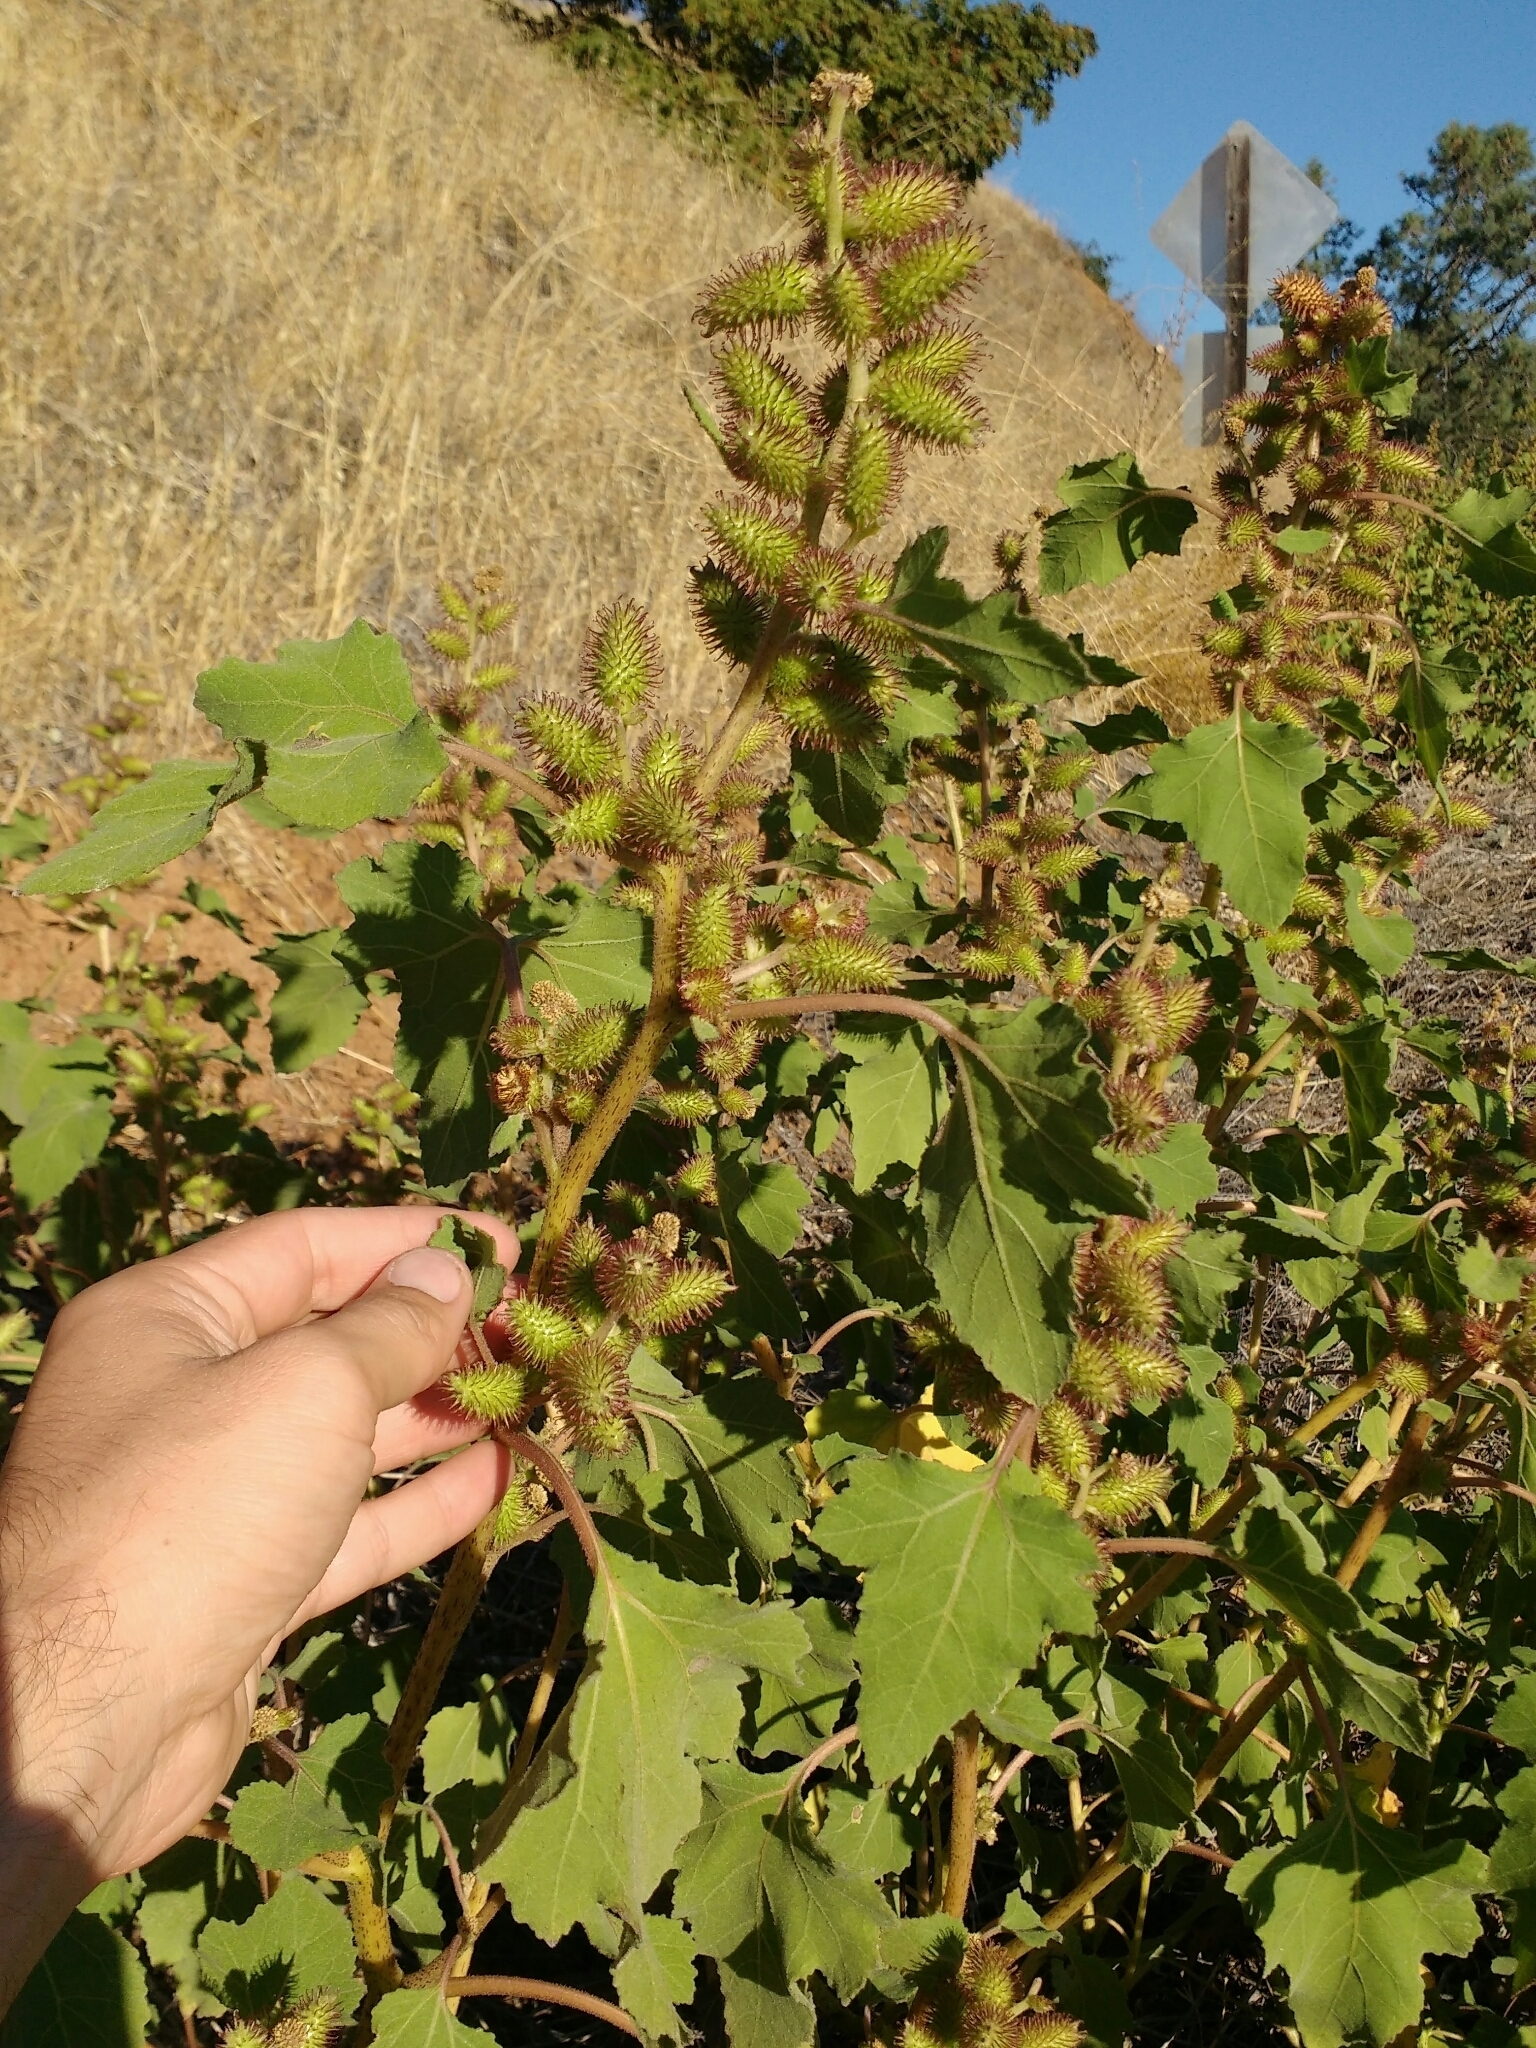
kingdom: Plantae
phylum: Tracheophyta
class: Magnoliopsida
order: Asterales
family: Asteraceae
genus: Xanthium
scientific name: Xanthium strumarium
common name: Rough cocklebur
